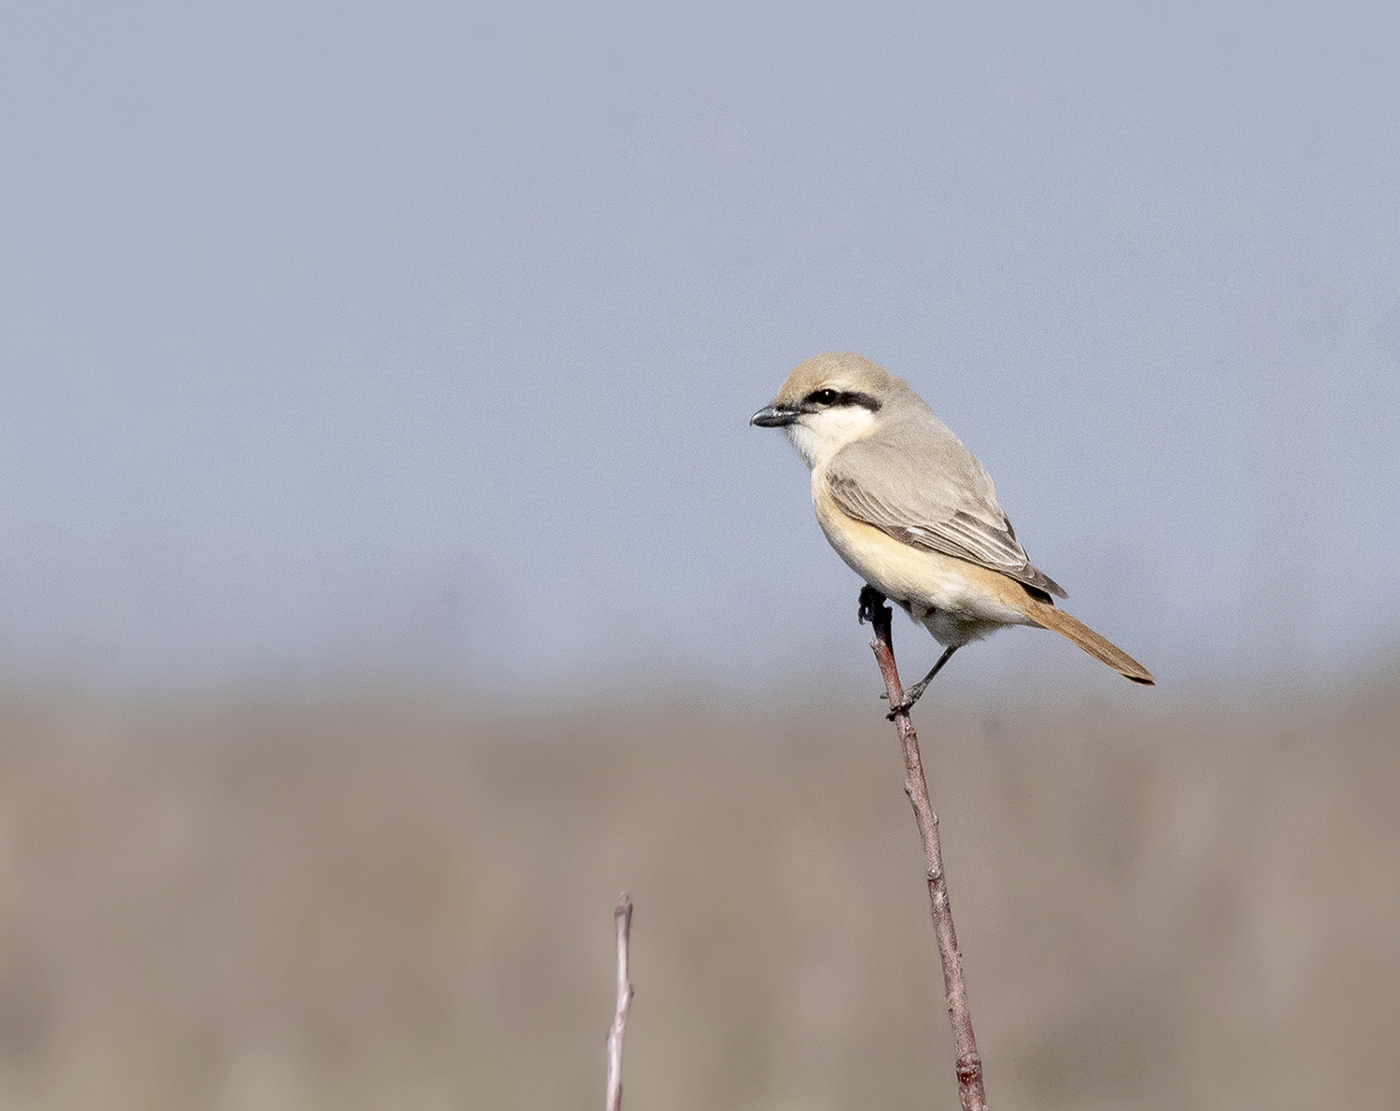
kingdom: Animalia
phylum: Chordata
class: Aves
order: Passeriformes
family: Laniidae
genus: Lanius
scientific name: Lanius isabellinus
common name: Isabelline shrike
